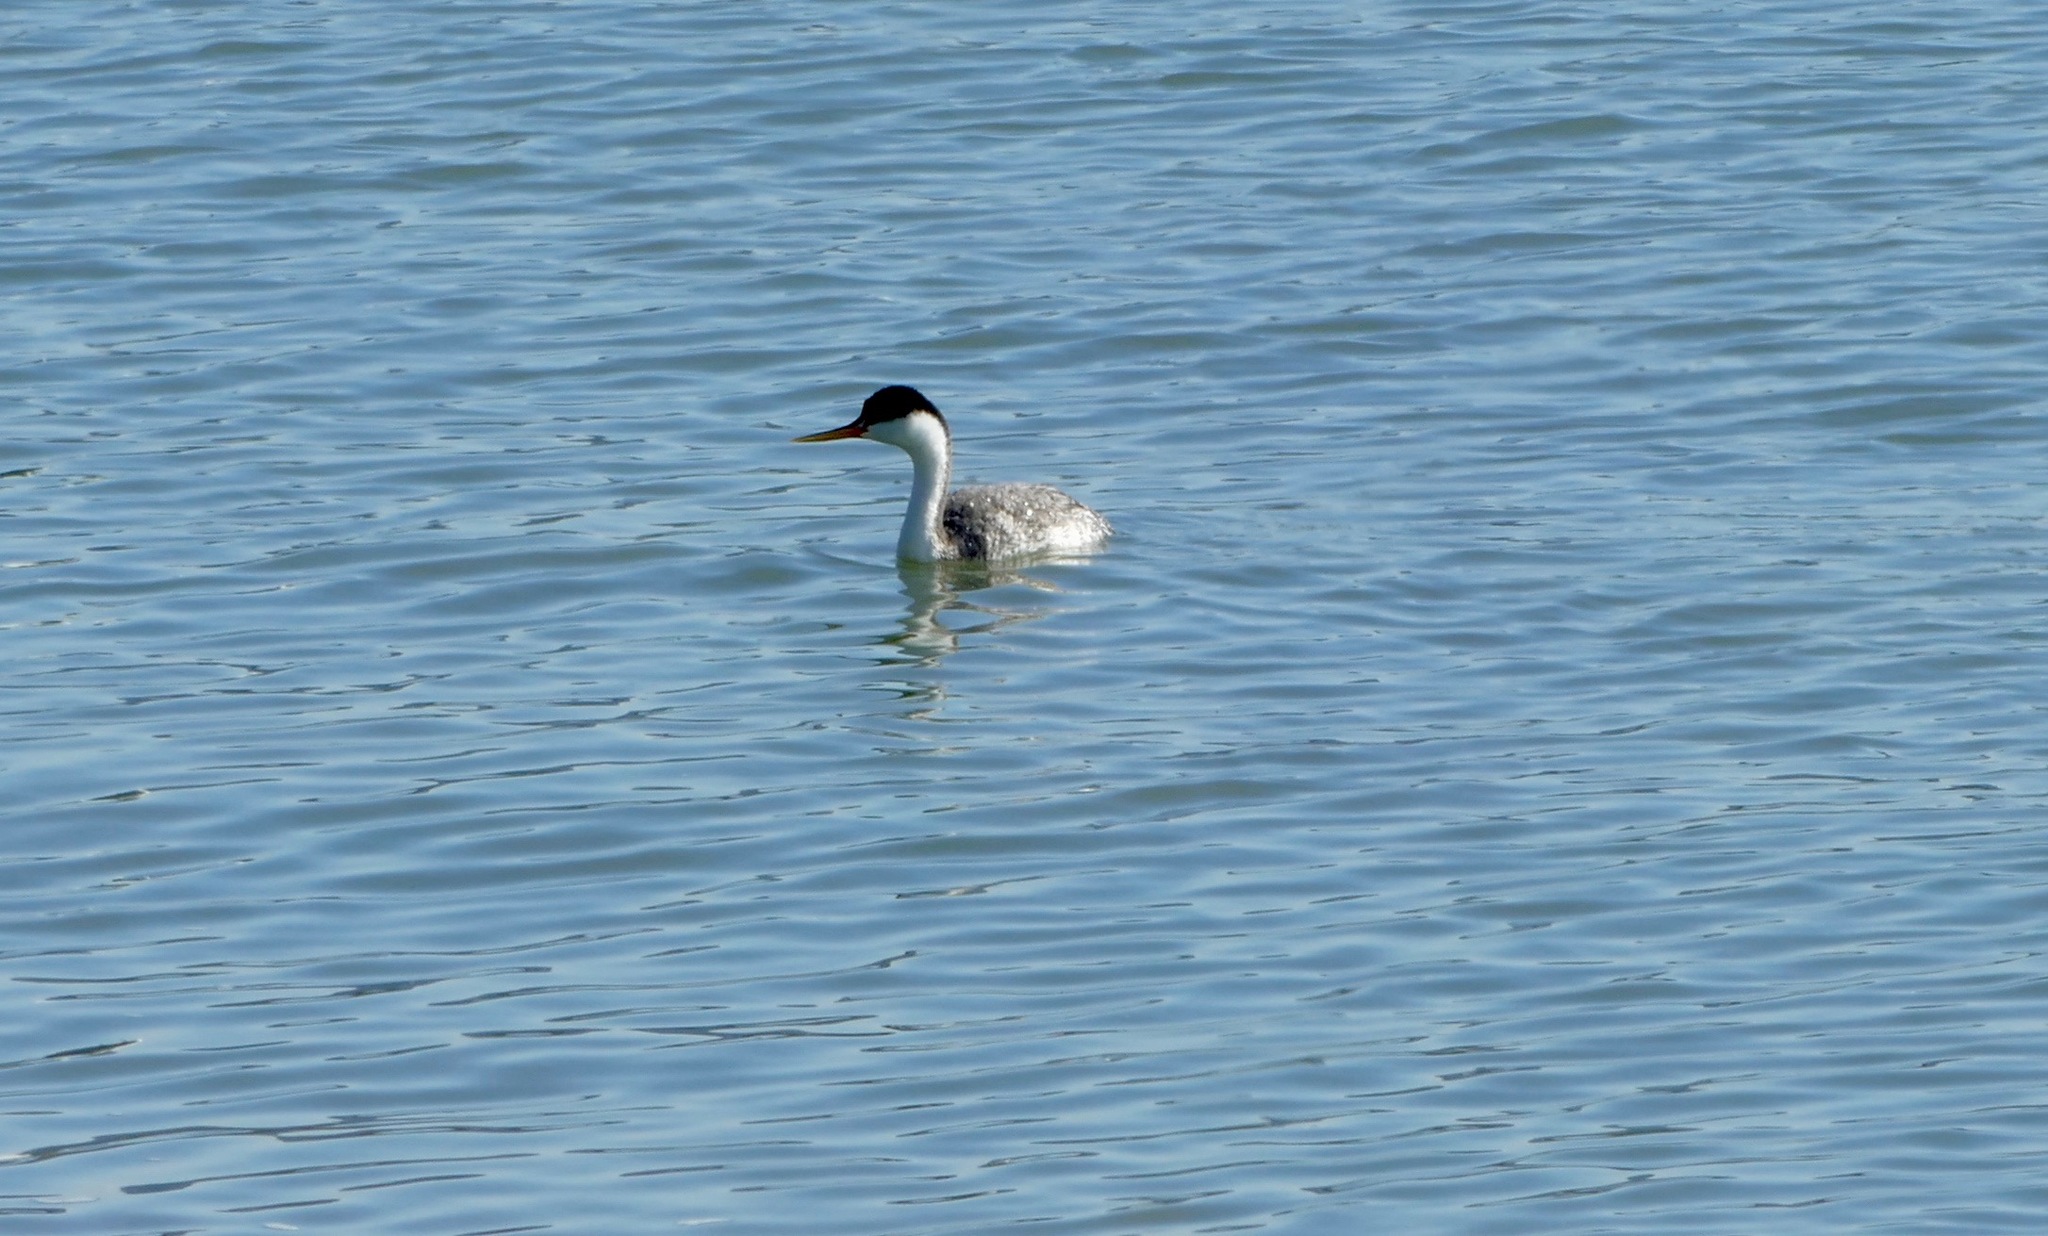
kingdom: Animalia
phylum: Chordata
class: Aves
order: Podicipediformes
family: Podicipedidae
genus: Aechmophorus
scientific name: Aechmophorus occidentalis
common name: Western grebe
